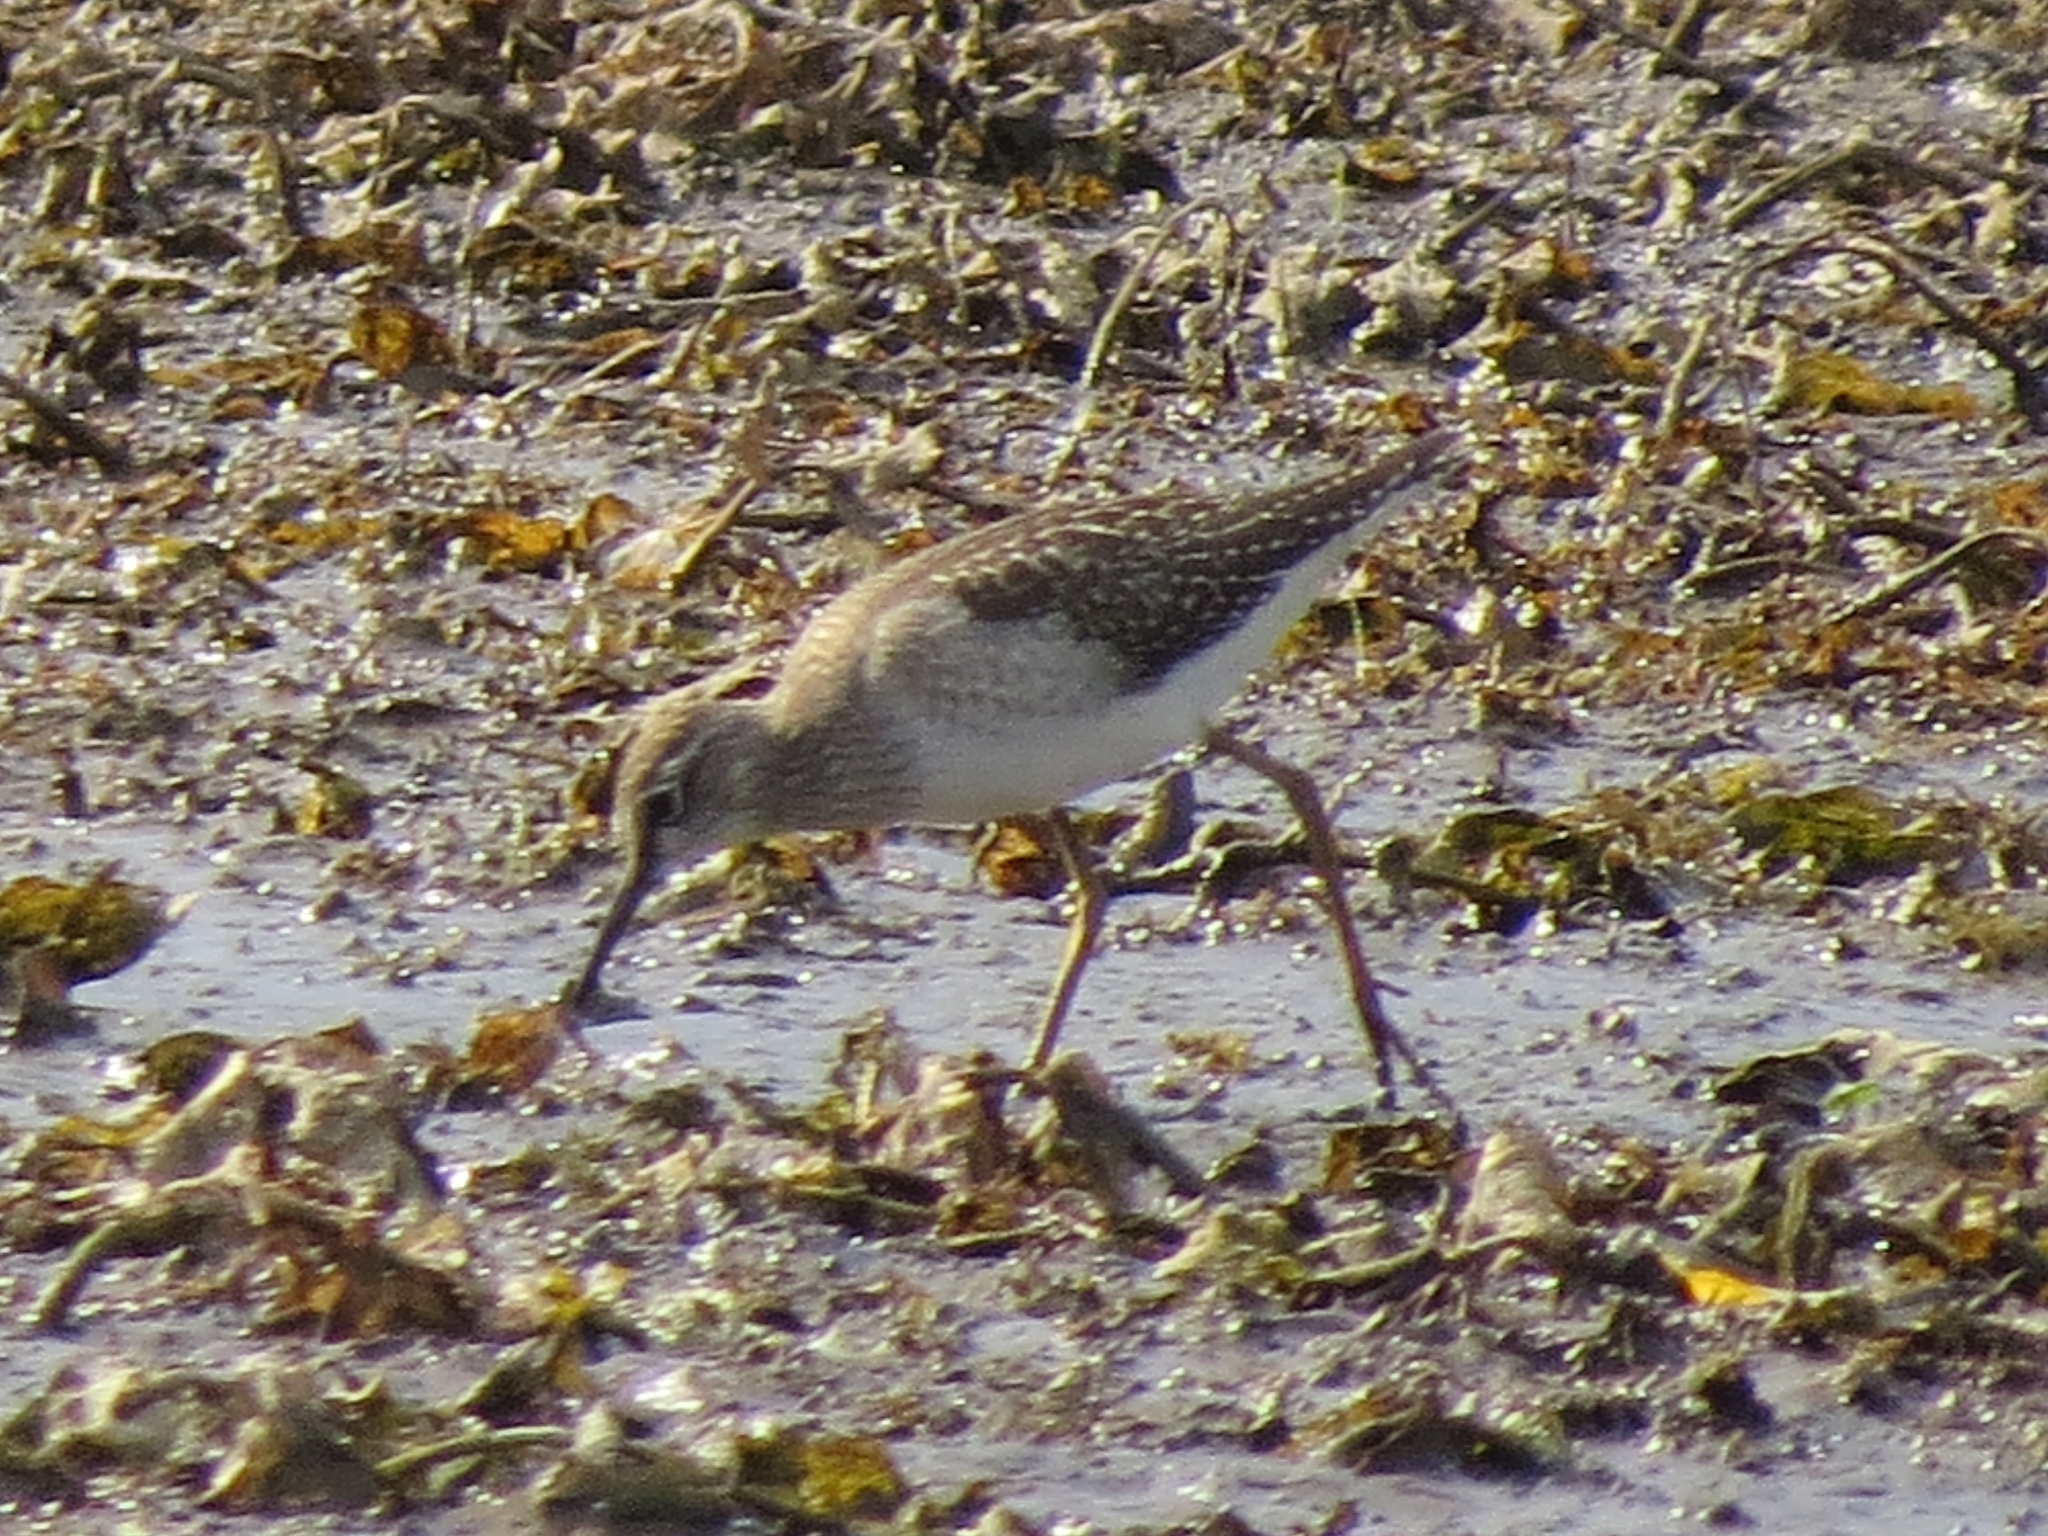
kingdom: Animalia
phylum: Chordata
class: Aves
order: Charadriiformes
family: Scolopacidae
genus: Tringa
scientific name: Tringa glareola
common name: Wood sandpiper
